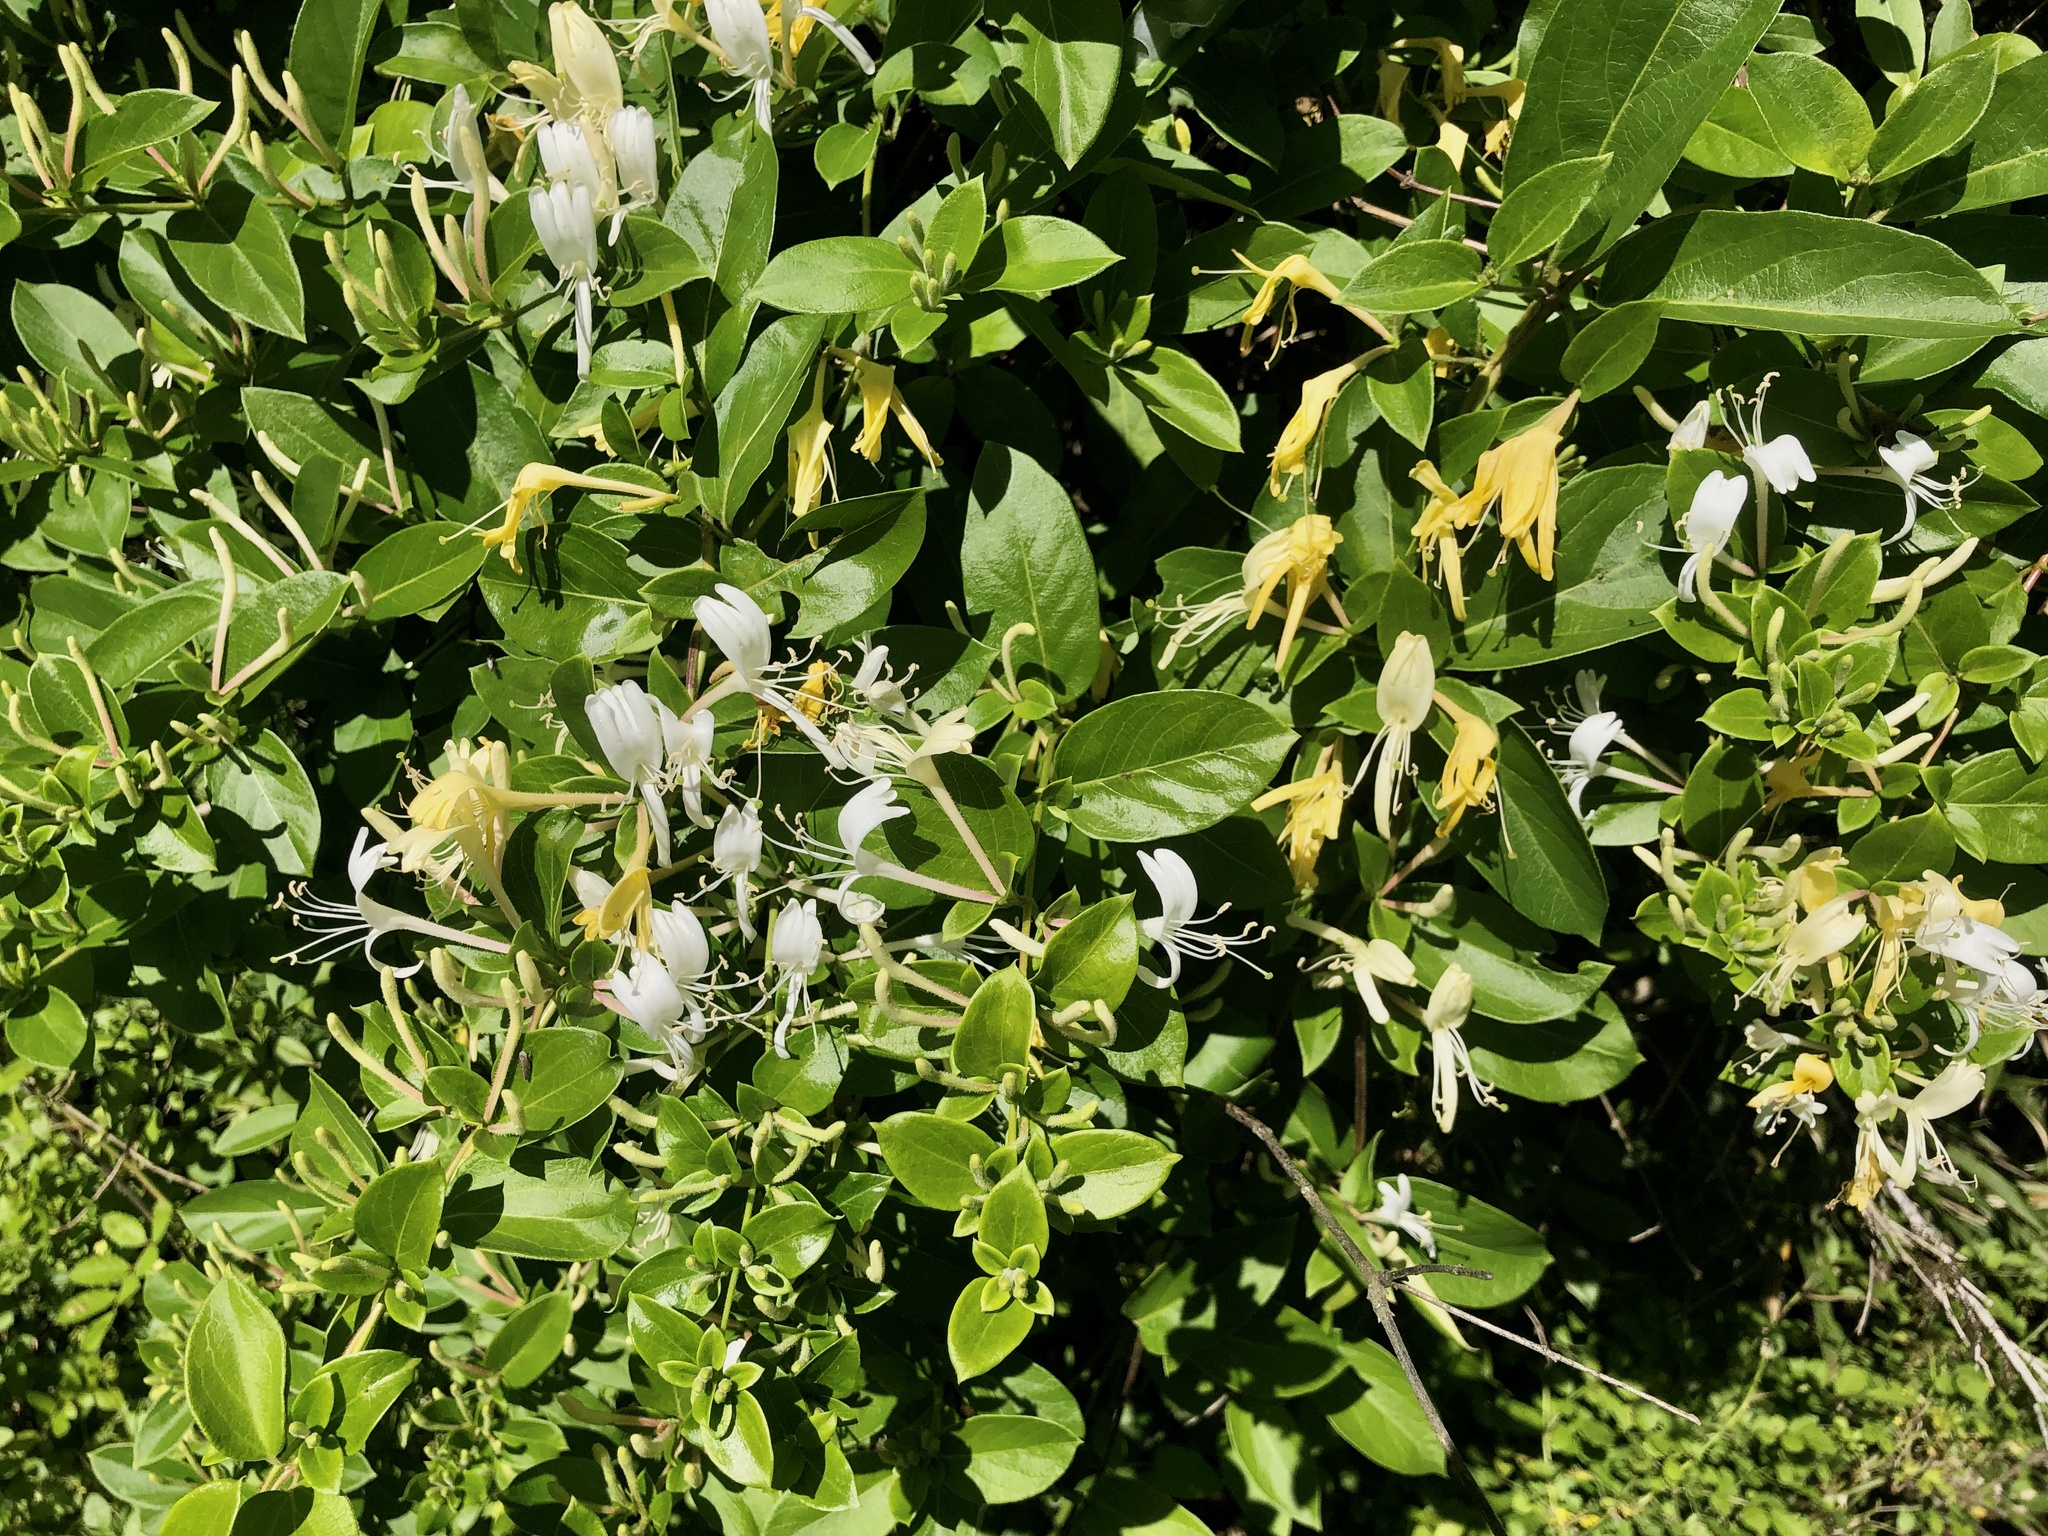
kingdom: Plantae
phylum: Tracheophyta
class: Magnoliopsida
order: Dipsacales
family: Caprifoliaceae
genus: Lonicera
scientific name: Lonicera japonica
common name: Japanese honeysuckle
